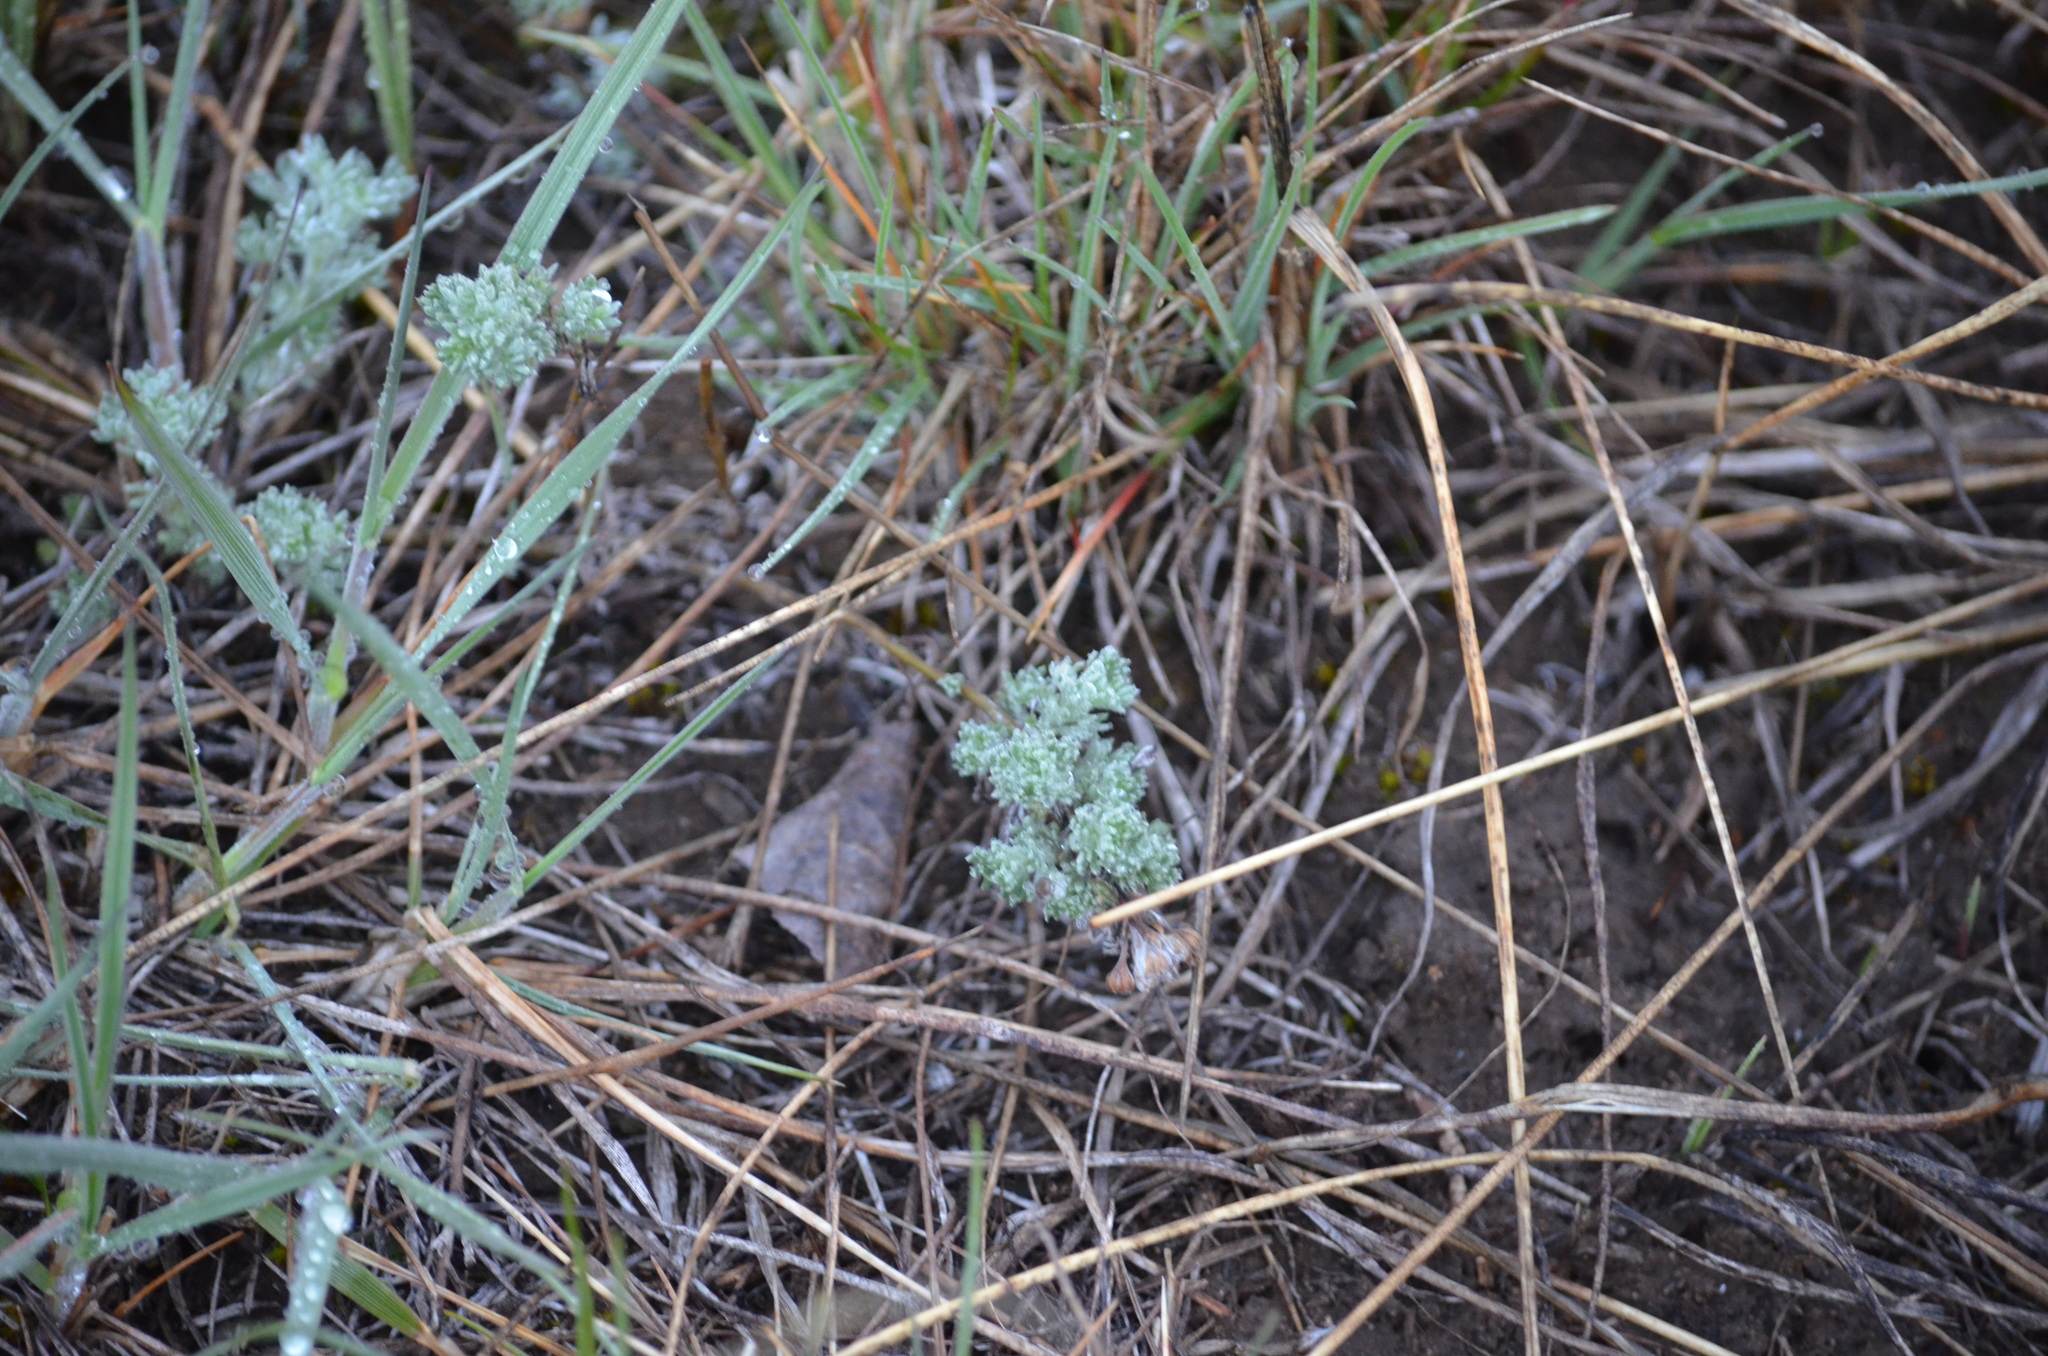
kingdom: Plantae
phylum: Tracheophyta
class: Magnoliopsida
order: Asterales
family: Asteraceae
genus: Artemisia
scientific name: Artemisia frigida
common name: Prairie sagewort
